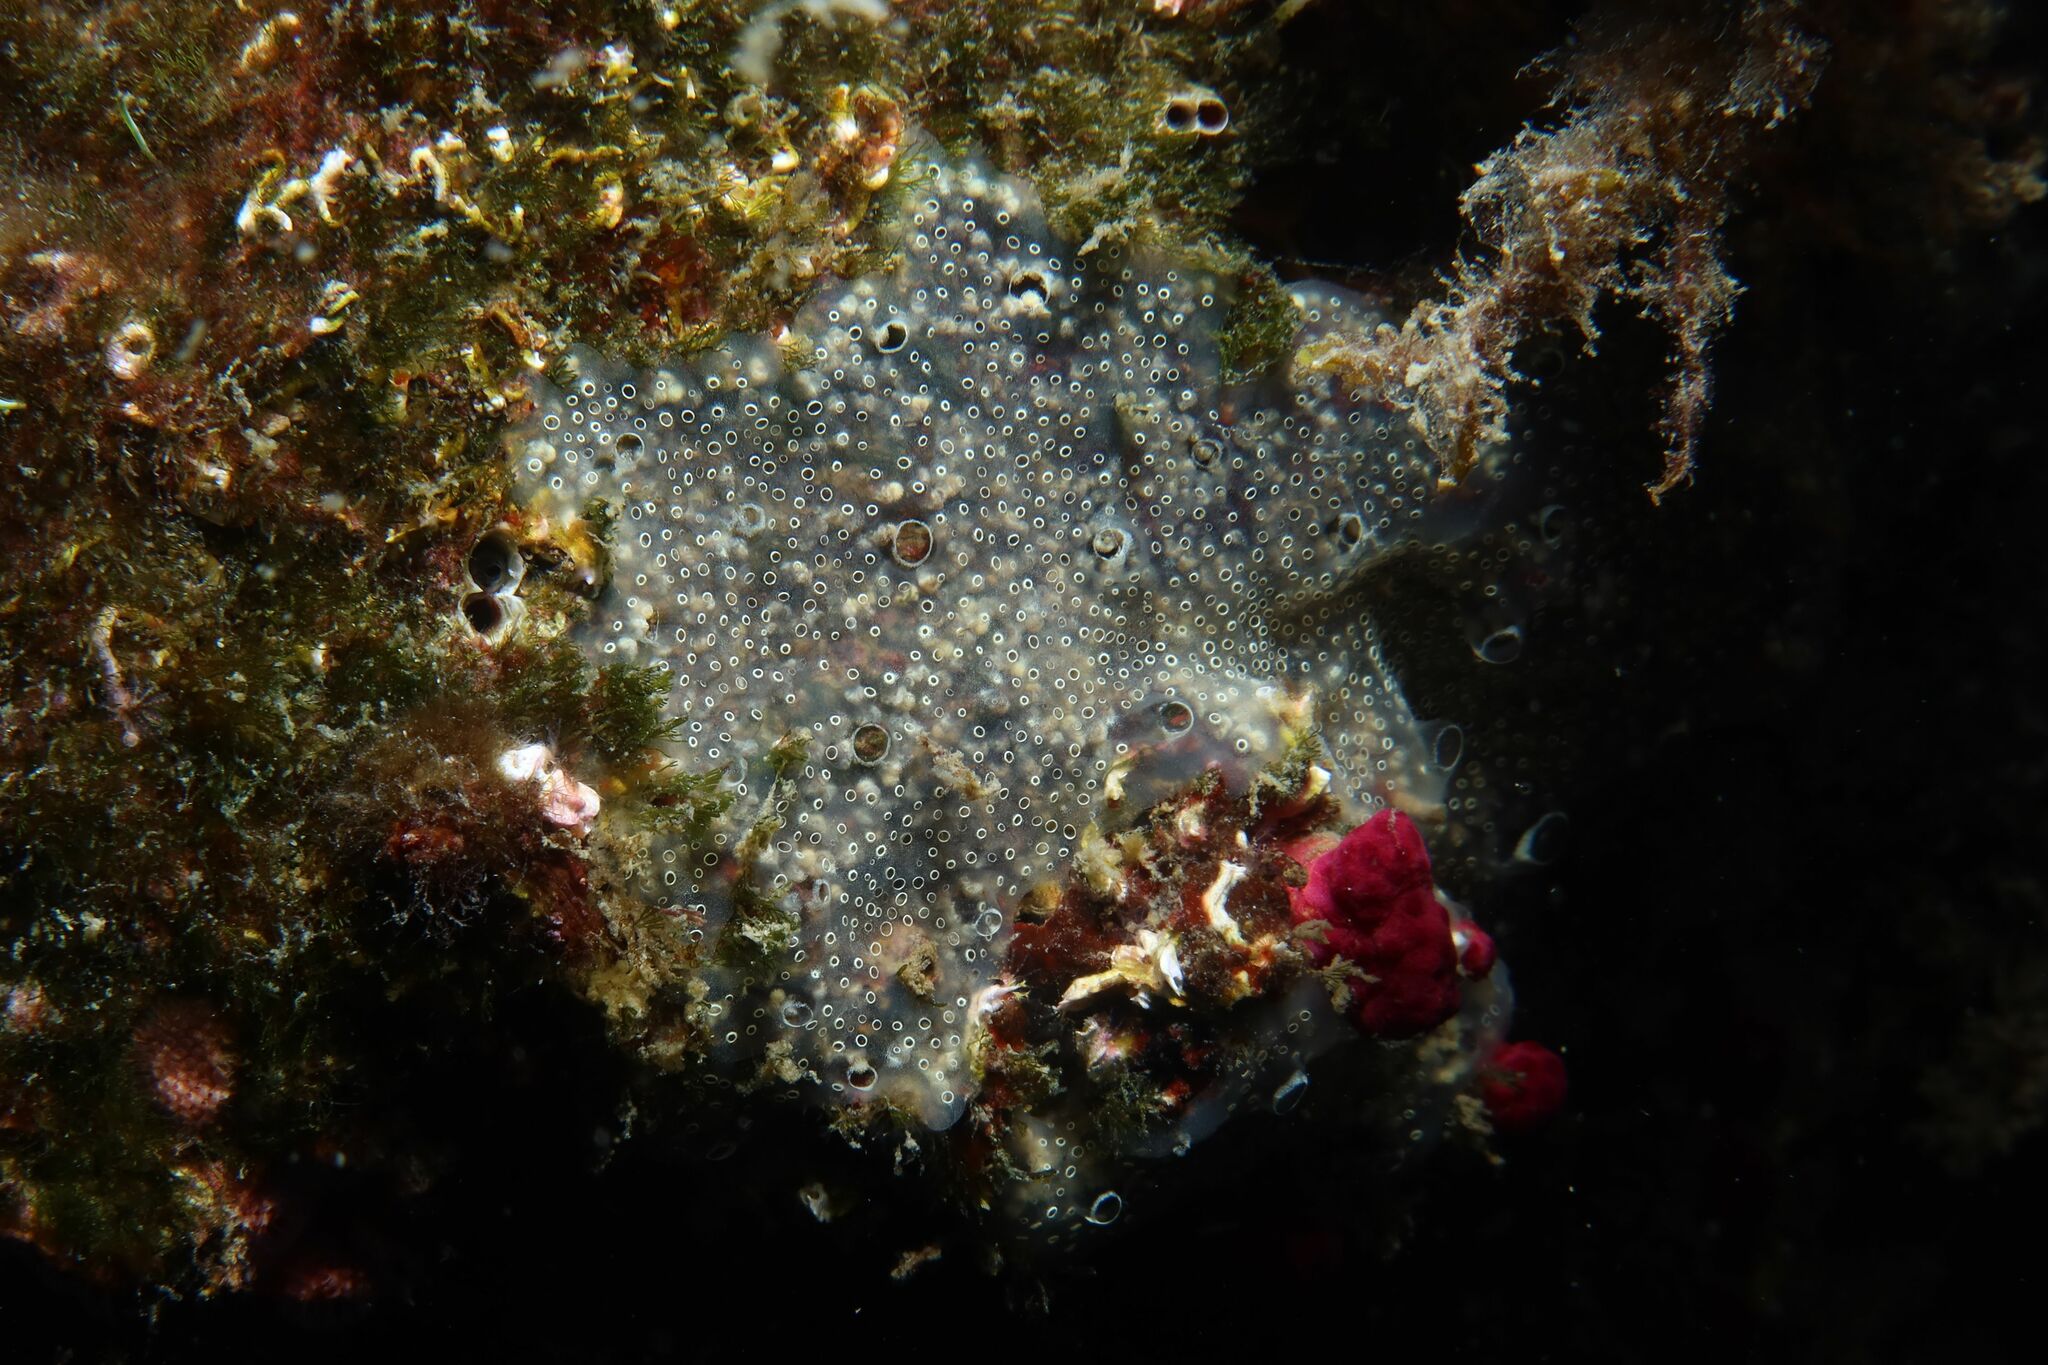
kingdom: Animalia
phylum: Chordata
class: Ascidiacea
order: Aplousobranchia
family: Didemnidae
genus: Diplosoma
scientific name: Diplosoma spongiforme
